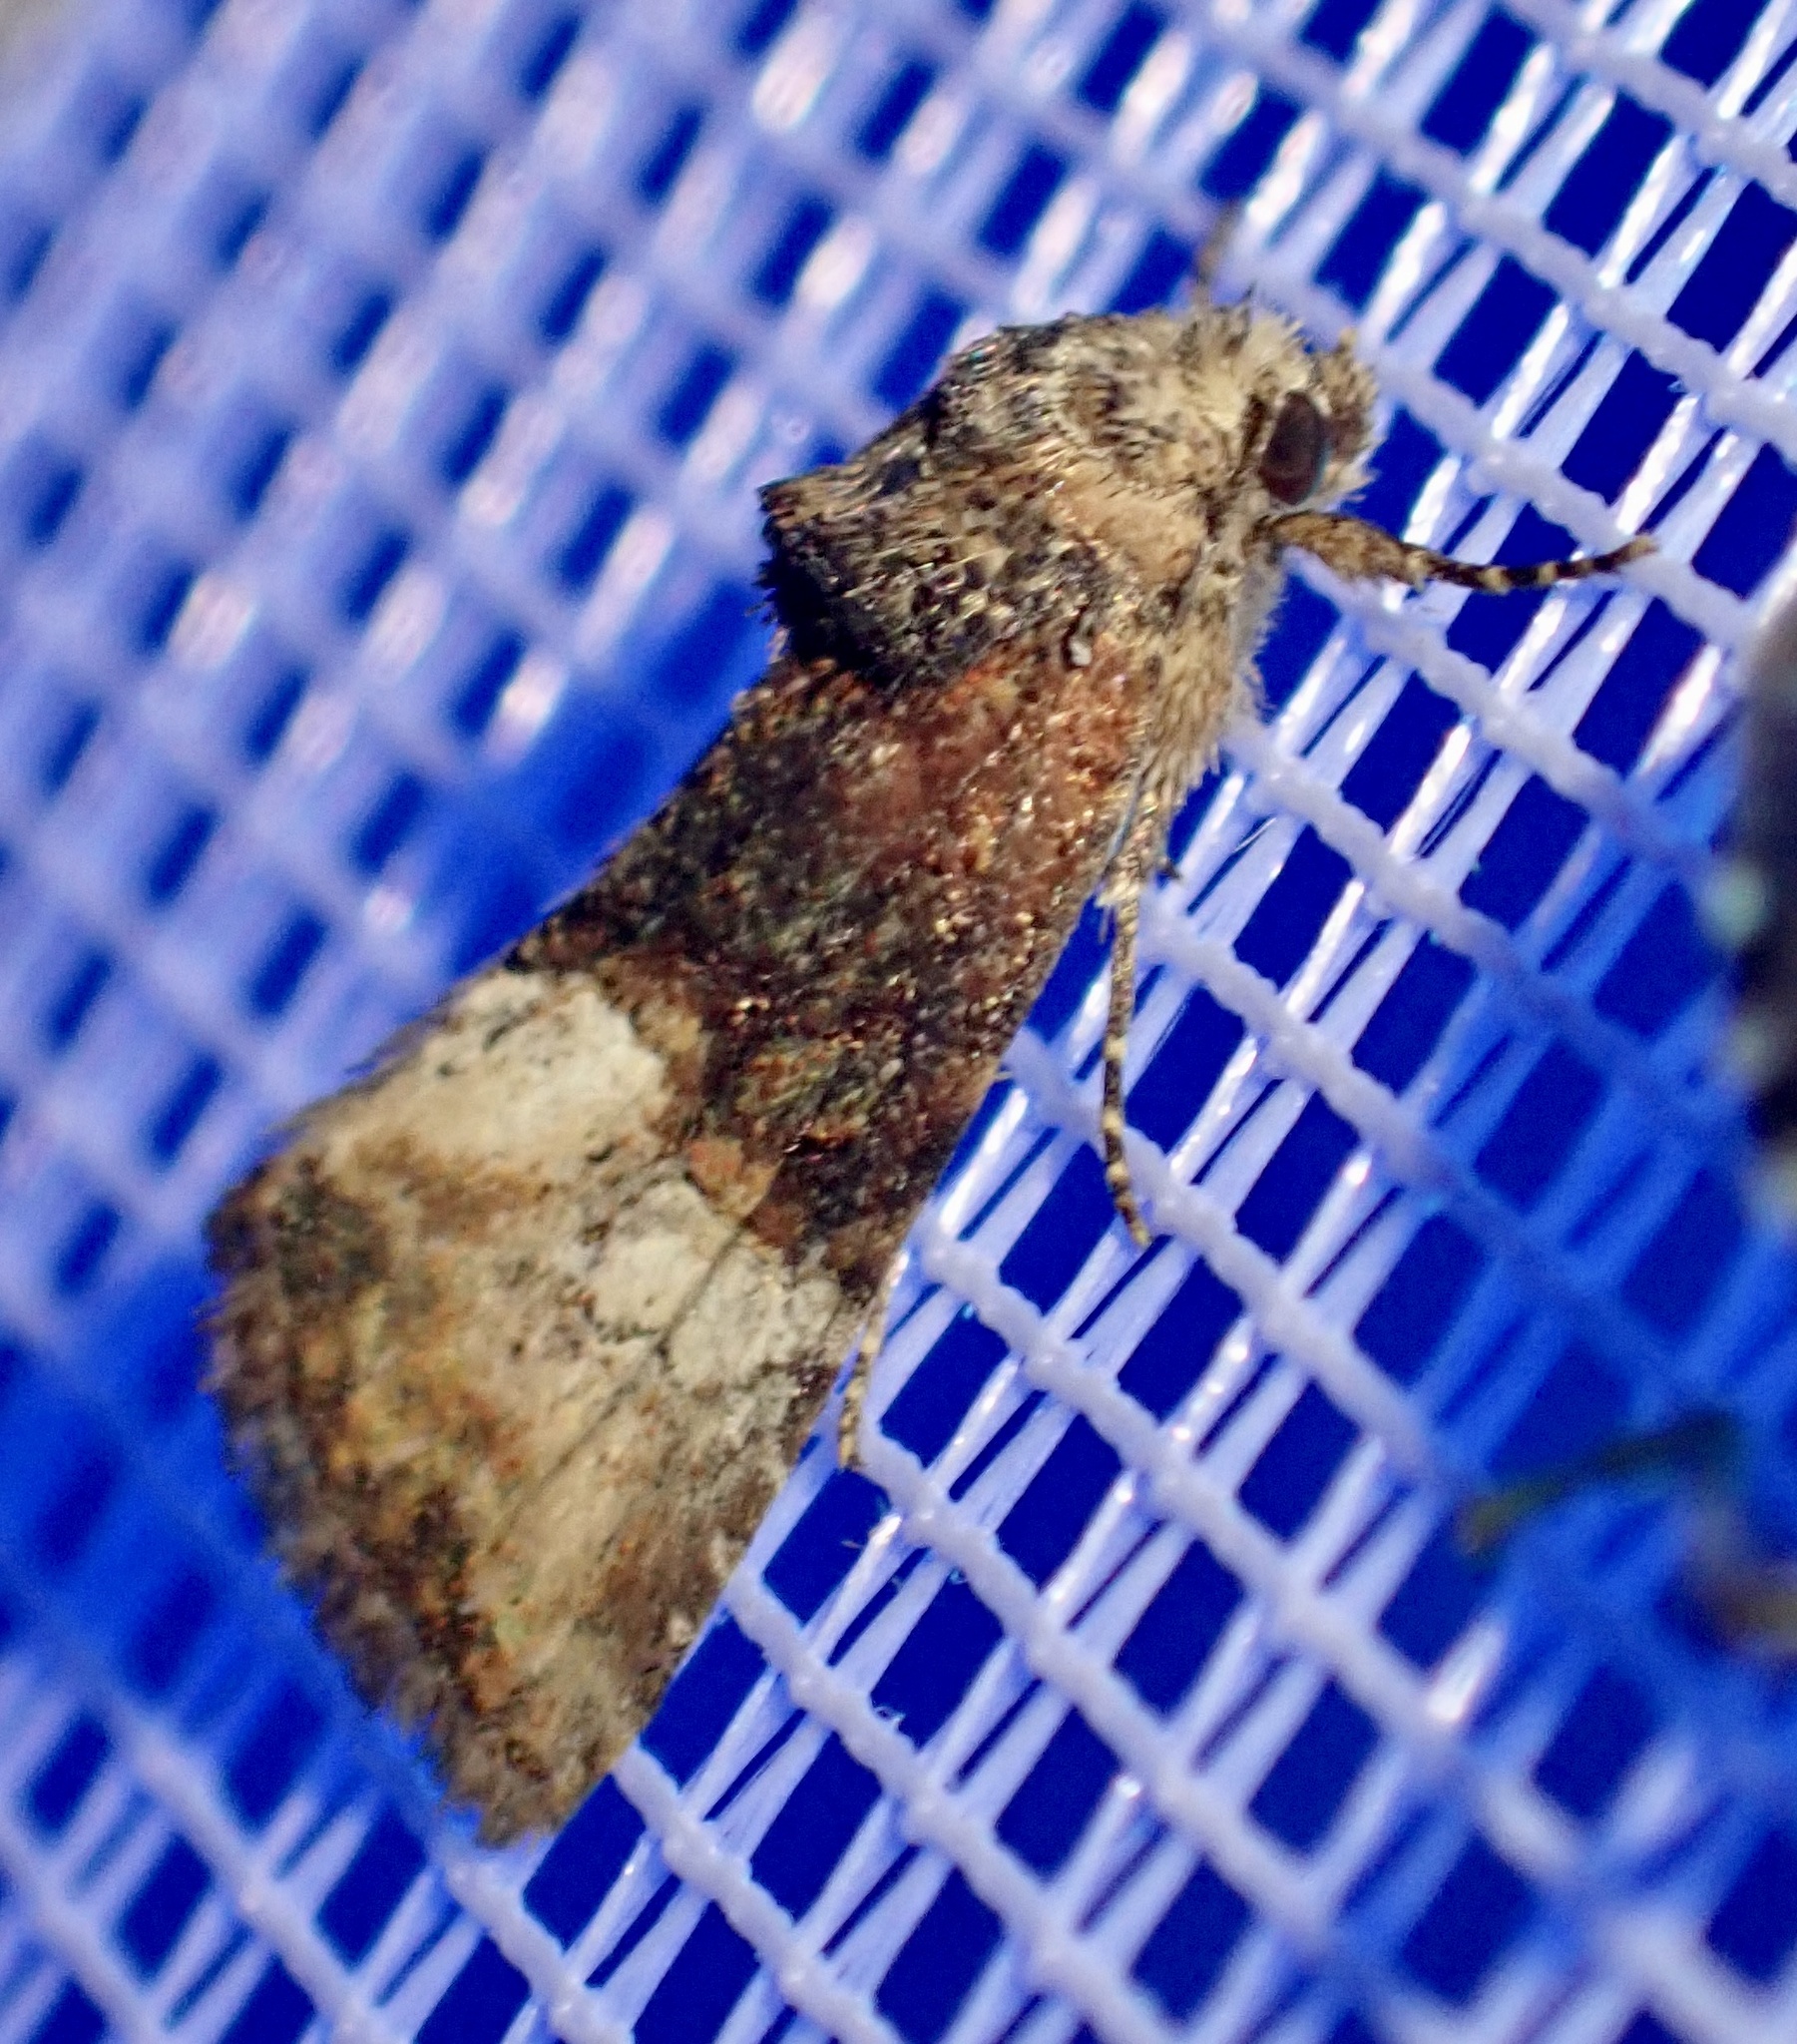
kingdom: Animalia
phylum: Arthropoda
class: Insecta
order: Lepidoptera
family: Noctuidae
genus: Mesoligia
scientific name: Mesoligia furuncula
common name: Cloaked minor
